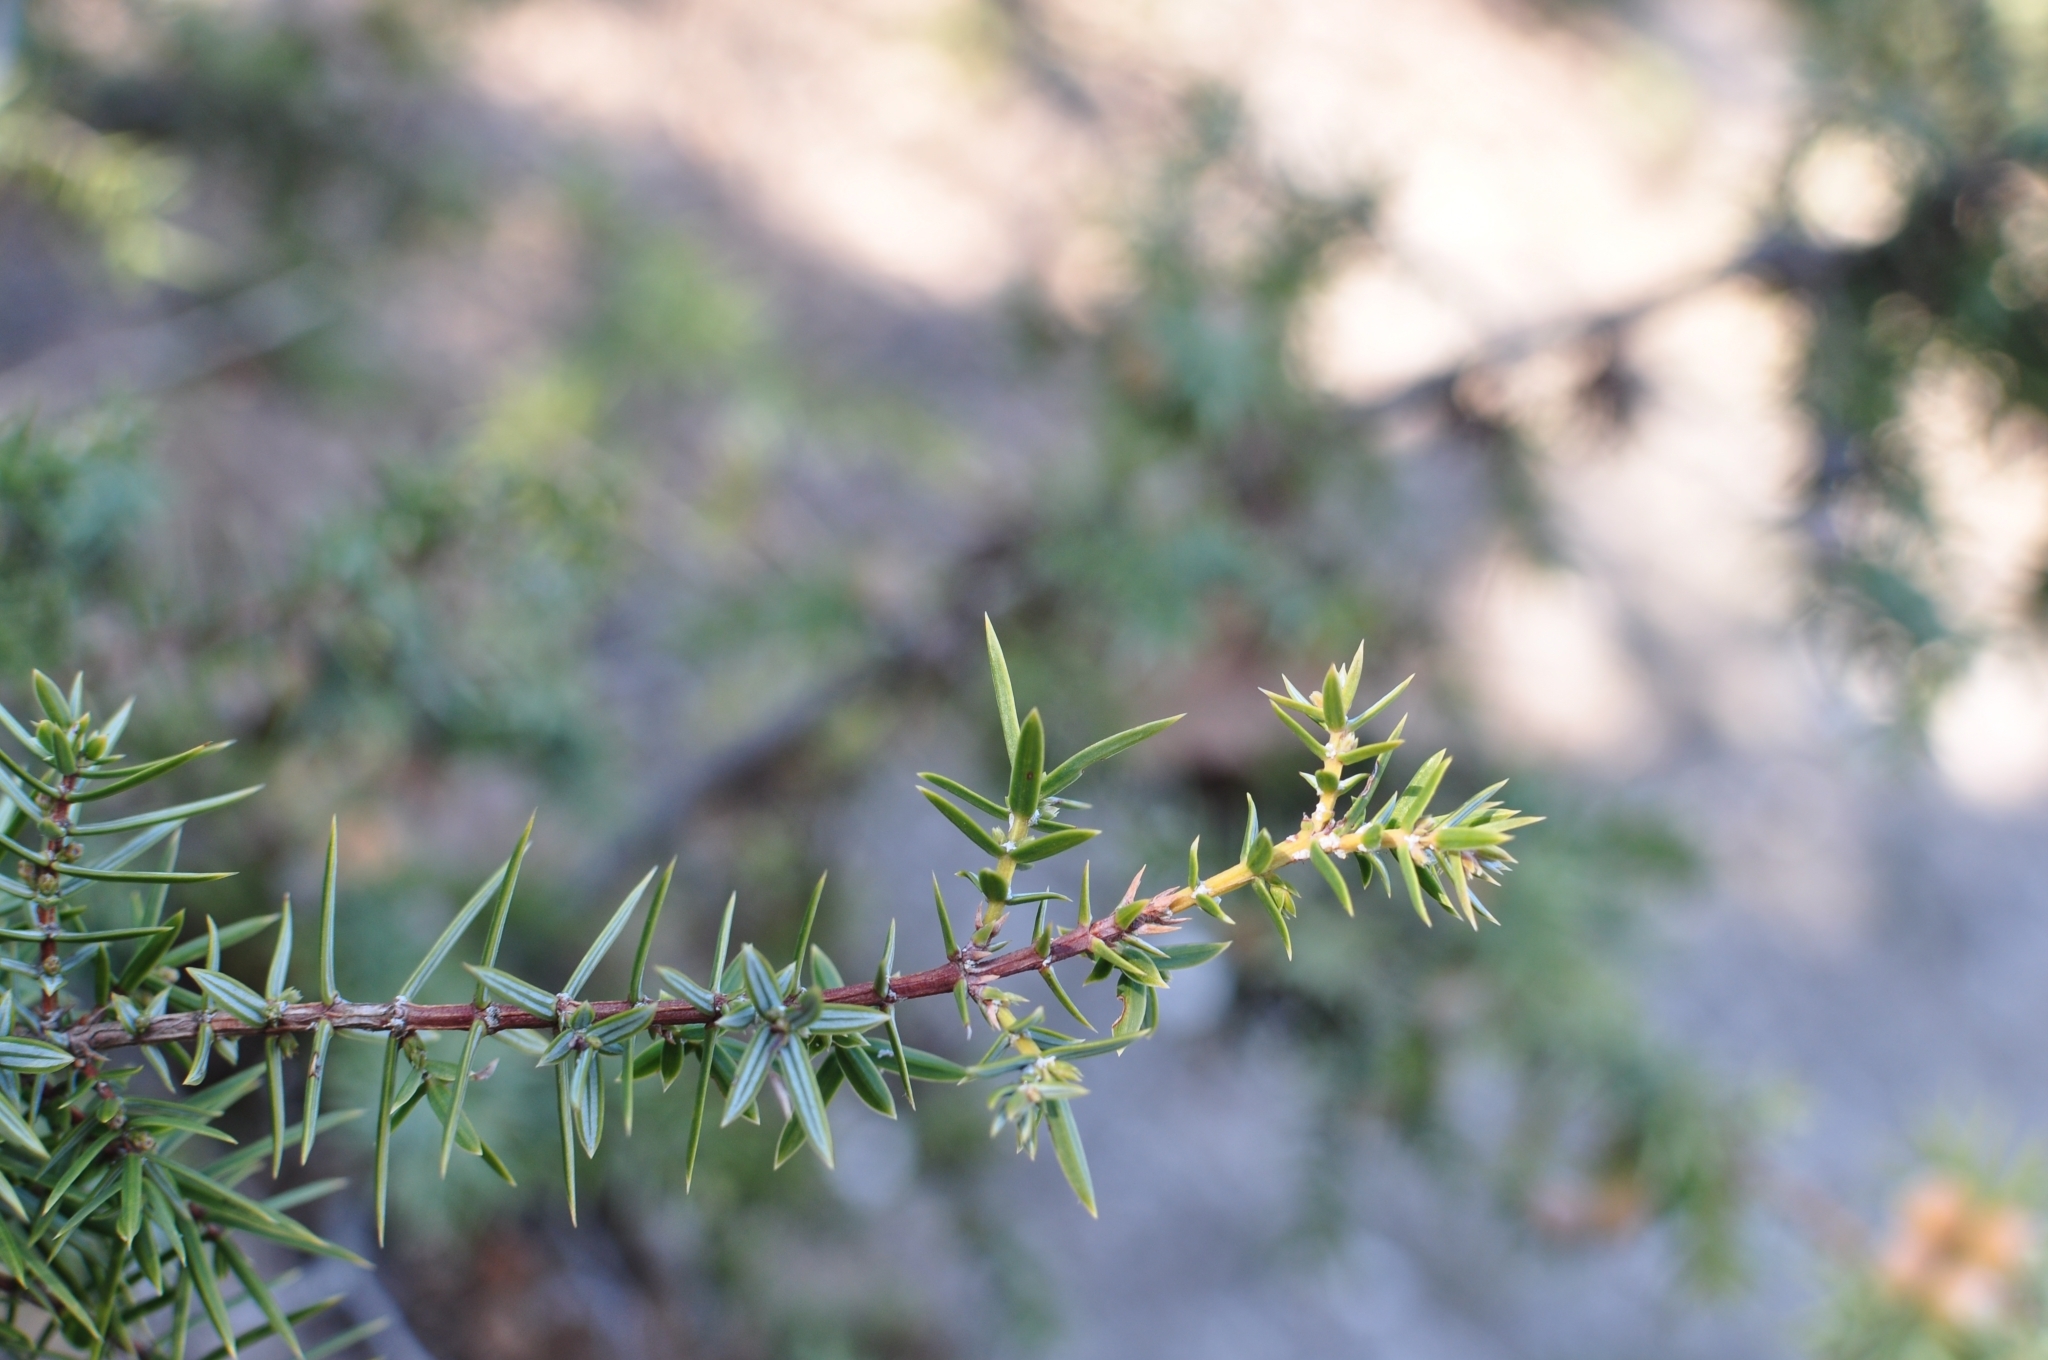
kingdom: Plantae
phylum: Tracheophyta
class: Pinopsida
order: Pinales
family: Cupressaceae
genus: Juniperus
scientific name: Juniperus oxycedrus
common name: Prickly juniper
